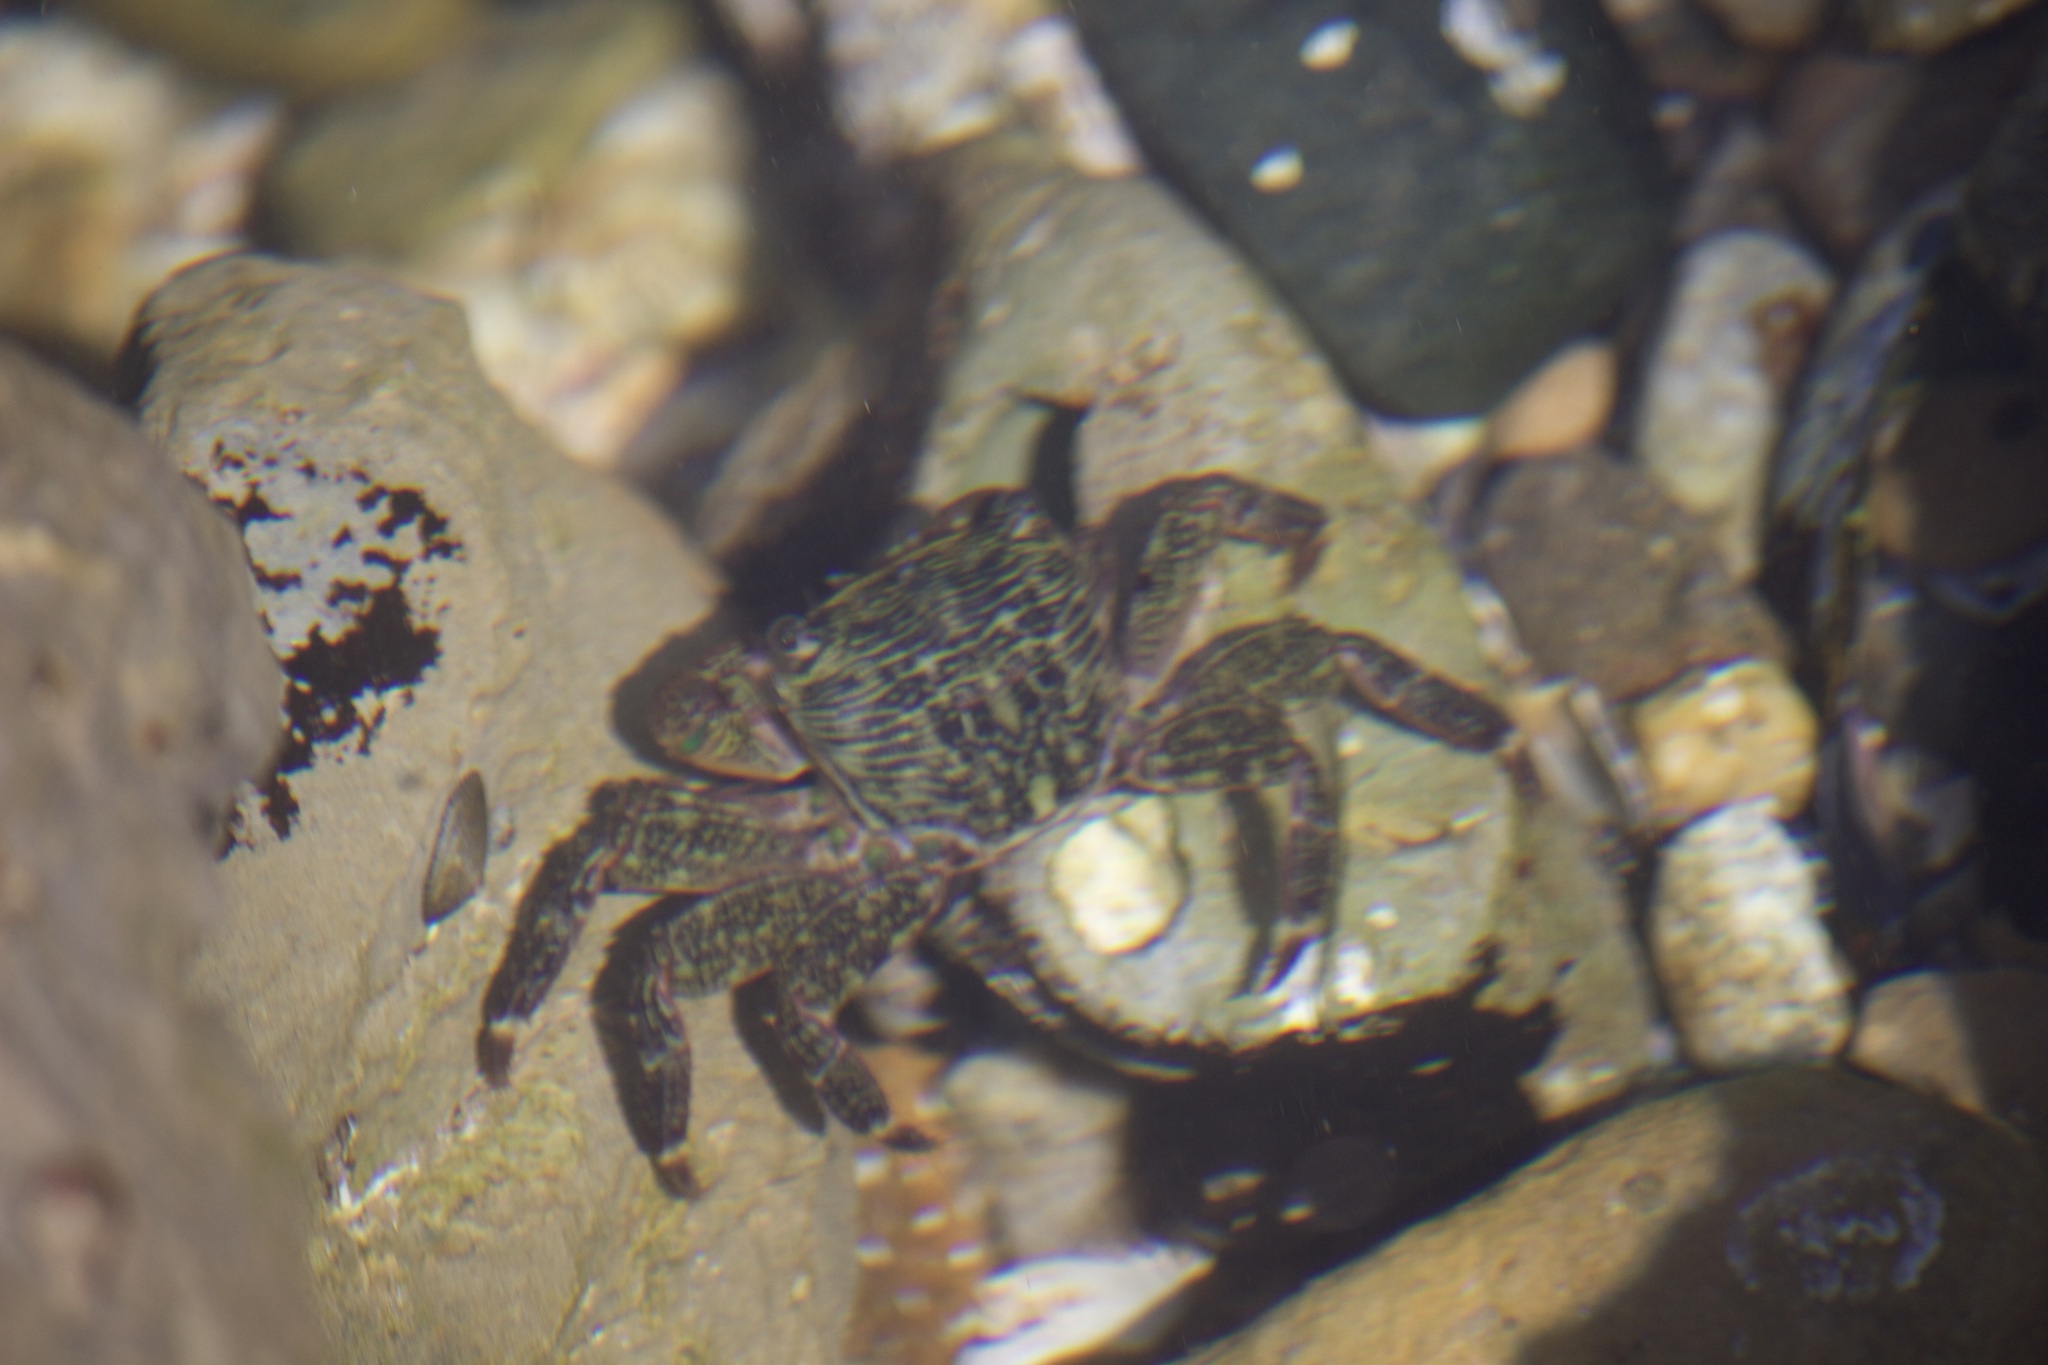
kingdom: Animalia
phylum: Arthropoda
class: Malacostraca
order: Decapoda
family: Grapsidae
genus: Pachygrapsus
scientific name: Pachygrapsus crassipes
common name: Striped shore crab
